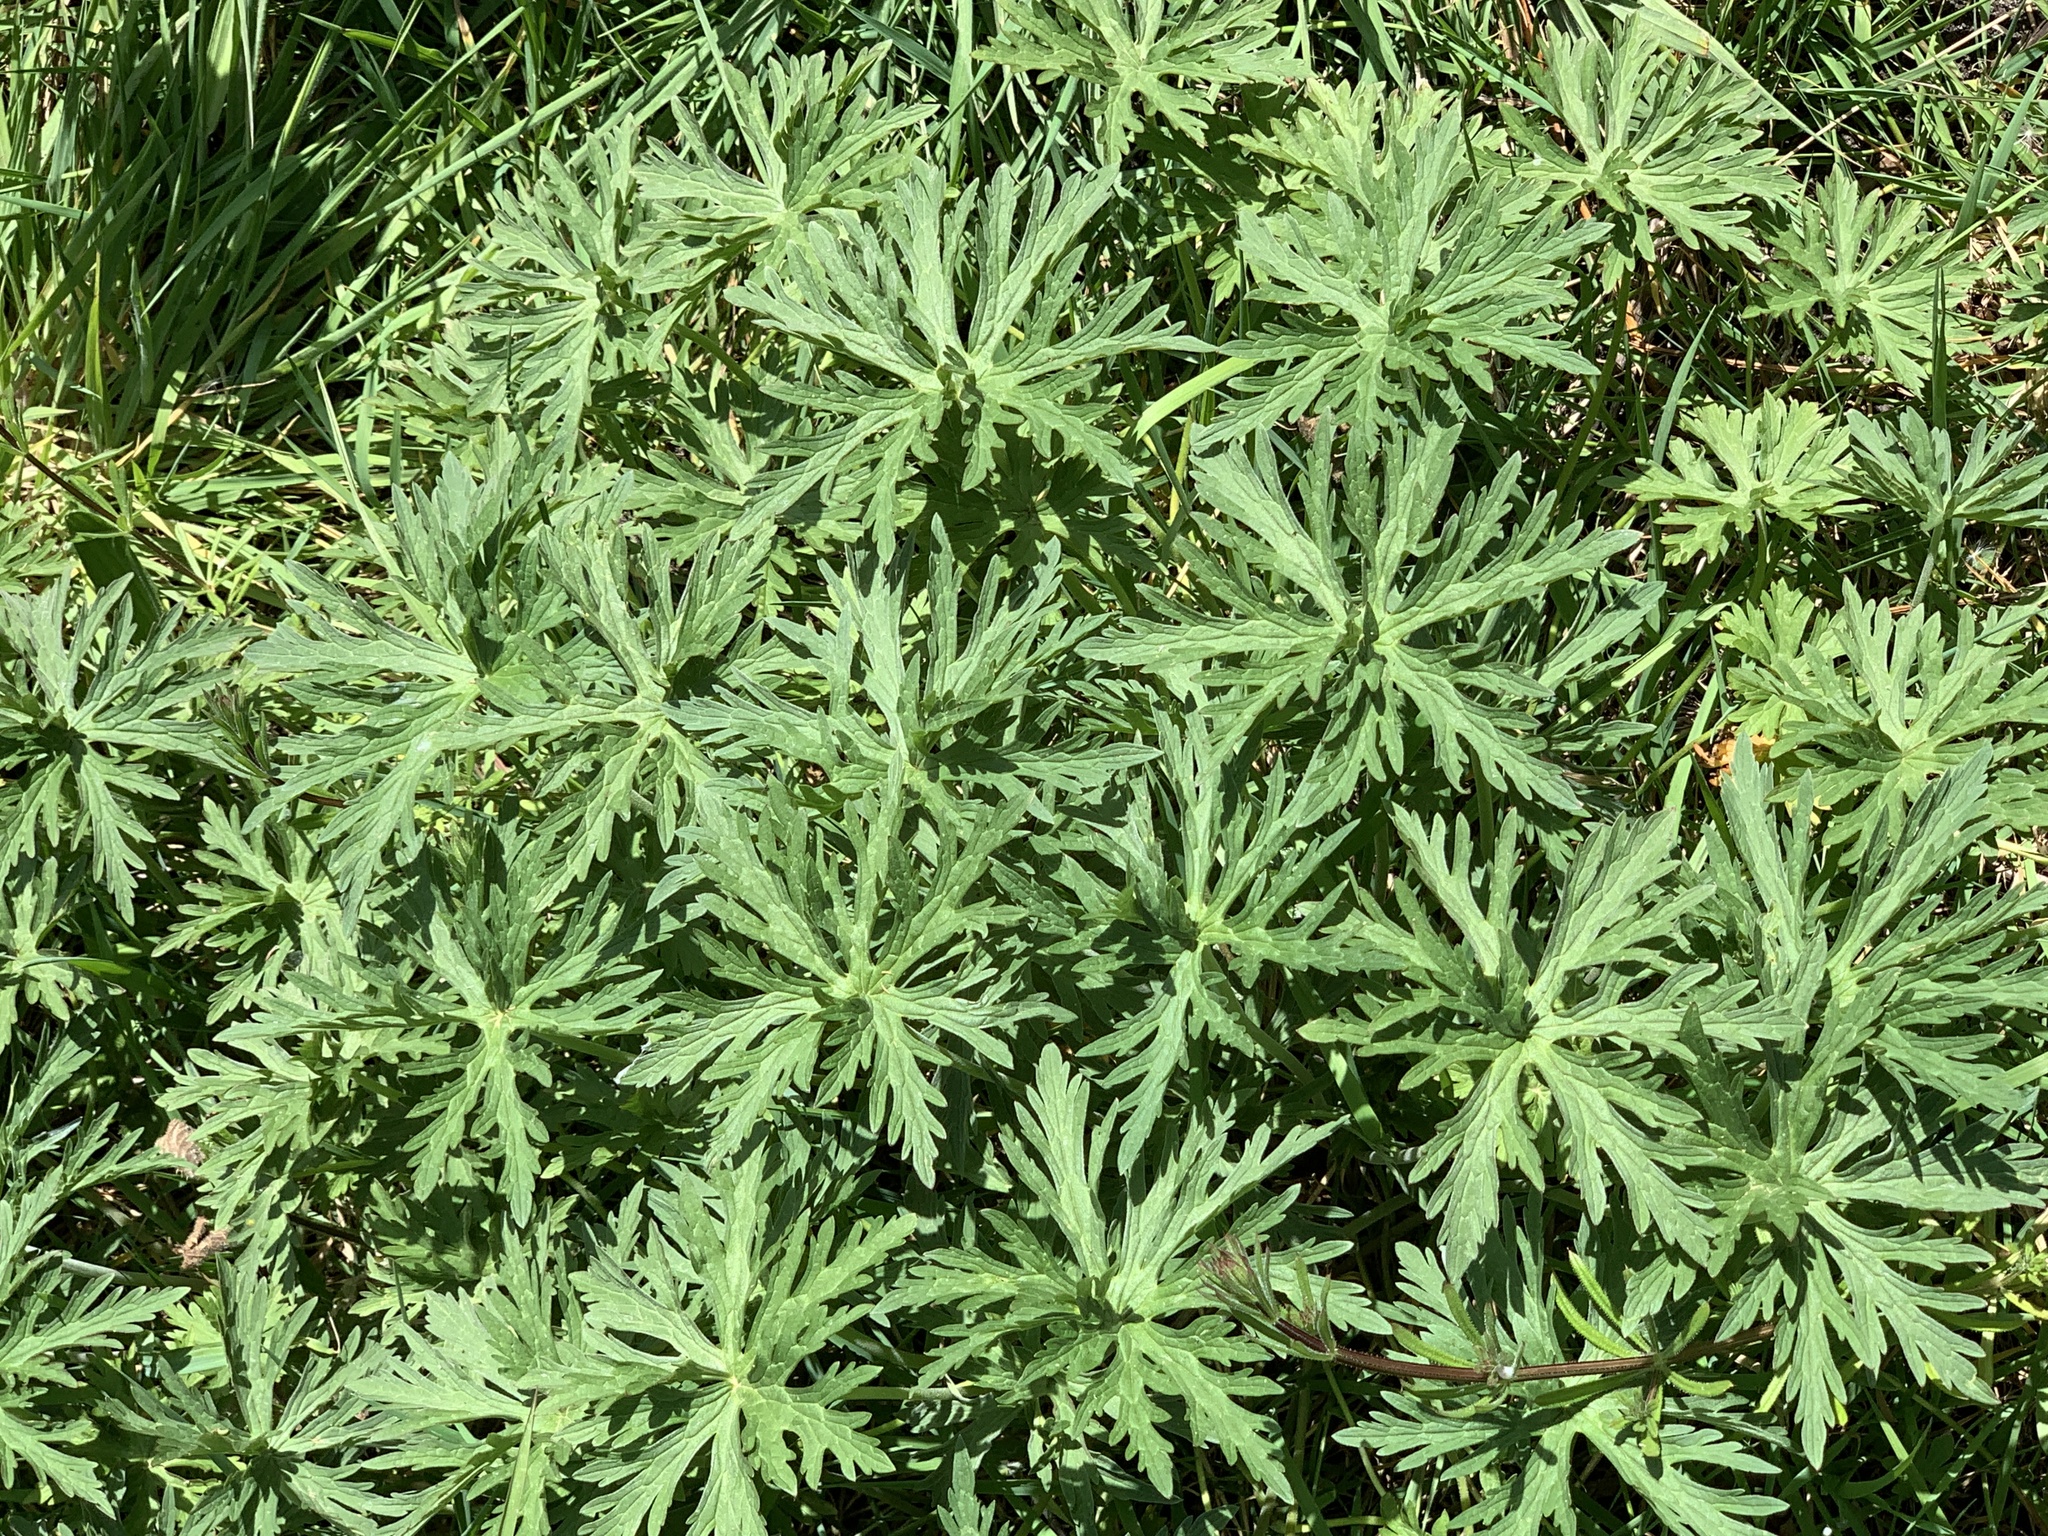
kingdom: Plantae
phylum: Tracheophyta
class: Magnoliopsida
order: Geraniales
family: Geraniaceae
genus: Geranium
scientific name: Geranium pratense
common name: Meadow crane's-bill
